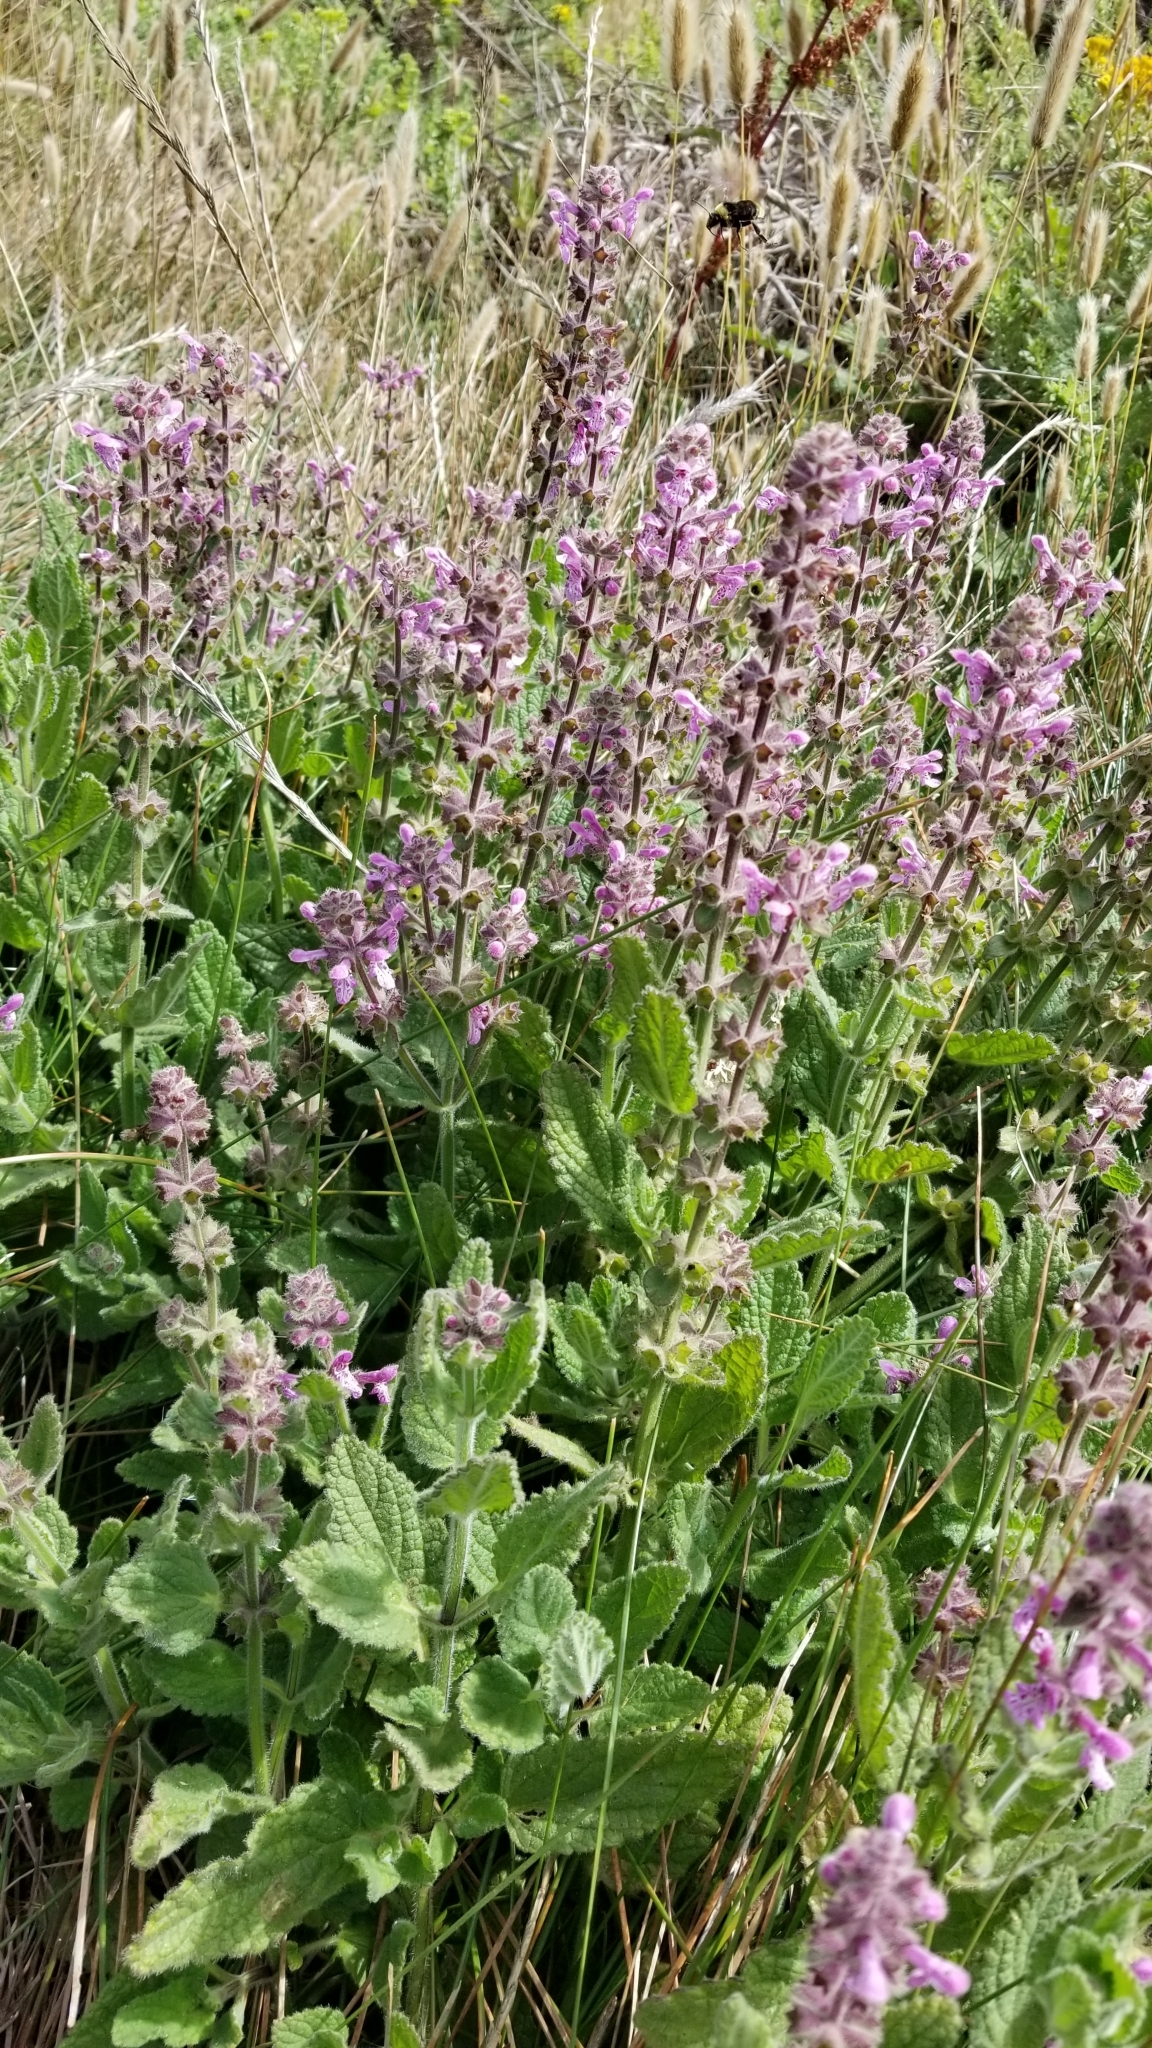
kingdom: Plantae
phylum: Tracheophyta
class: Magnoliopsida
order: Lamiales
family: Lamiaceae
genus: Stachys
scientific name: Stachys ajugoides
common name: Hedge-nettle
